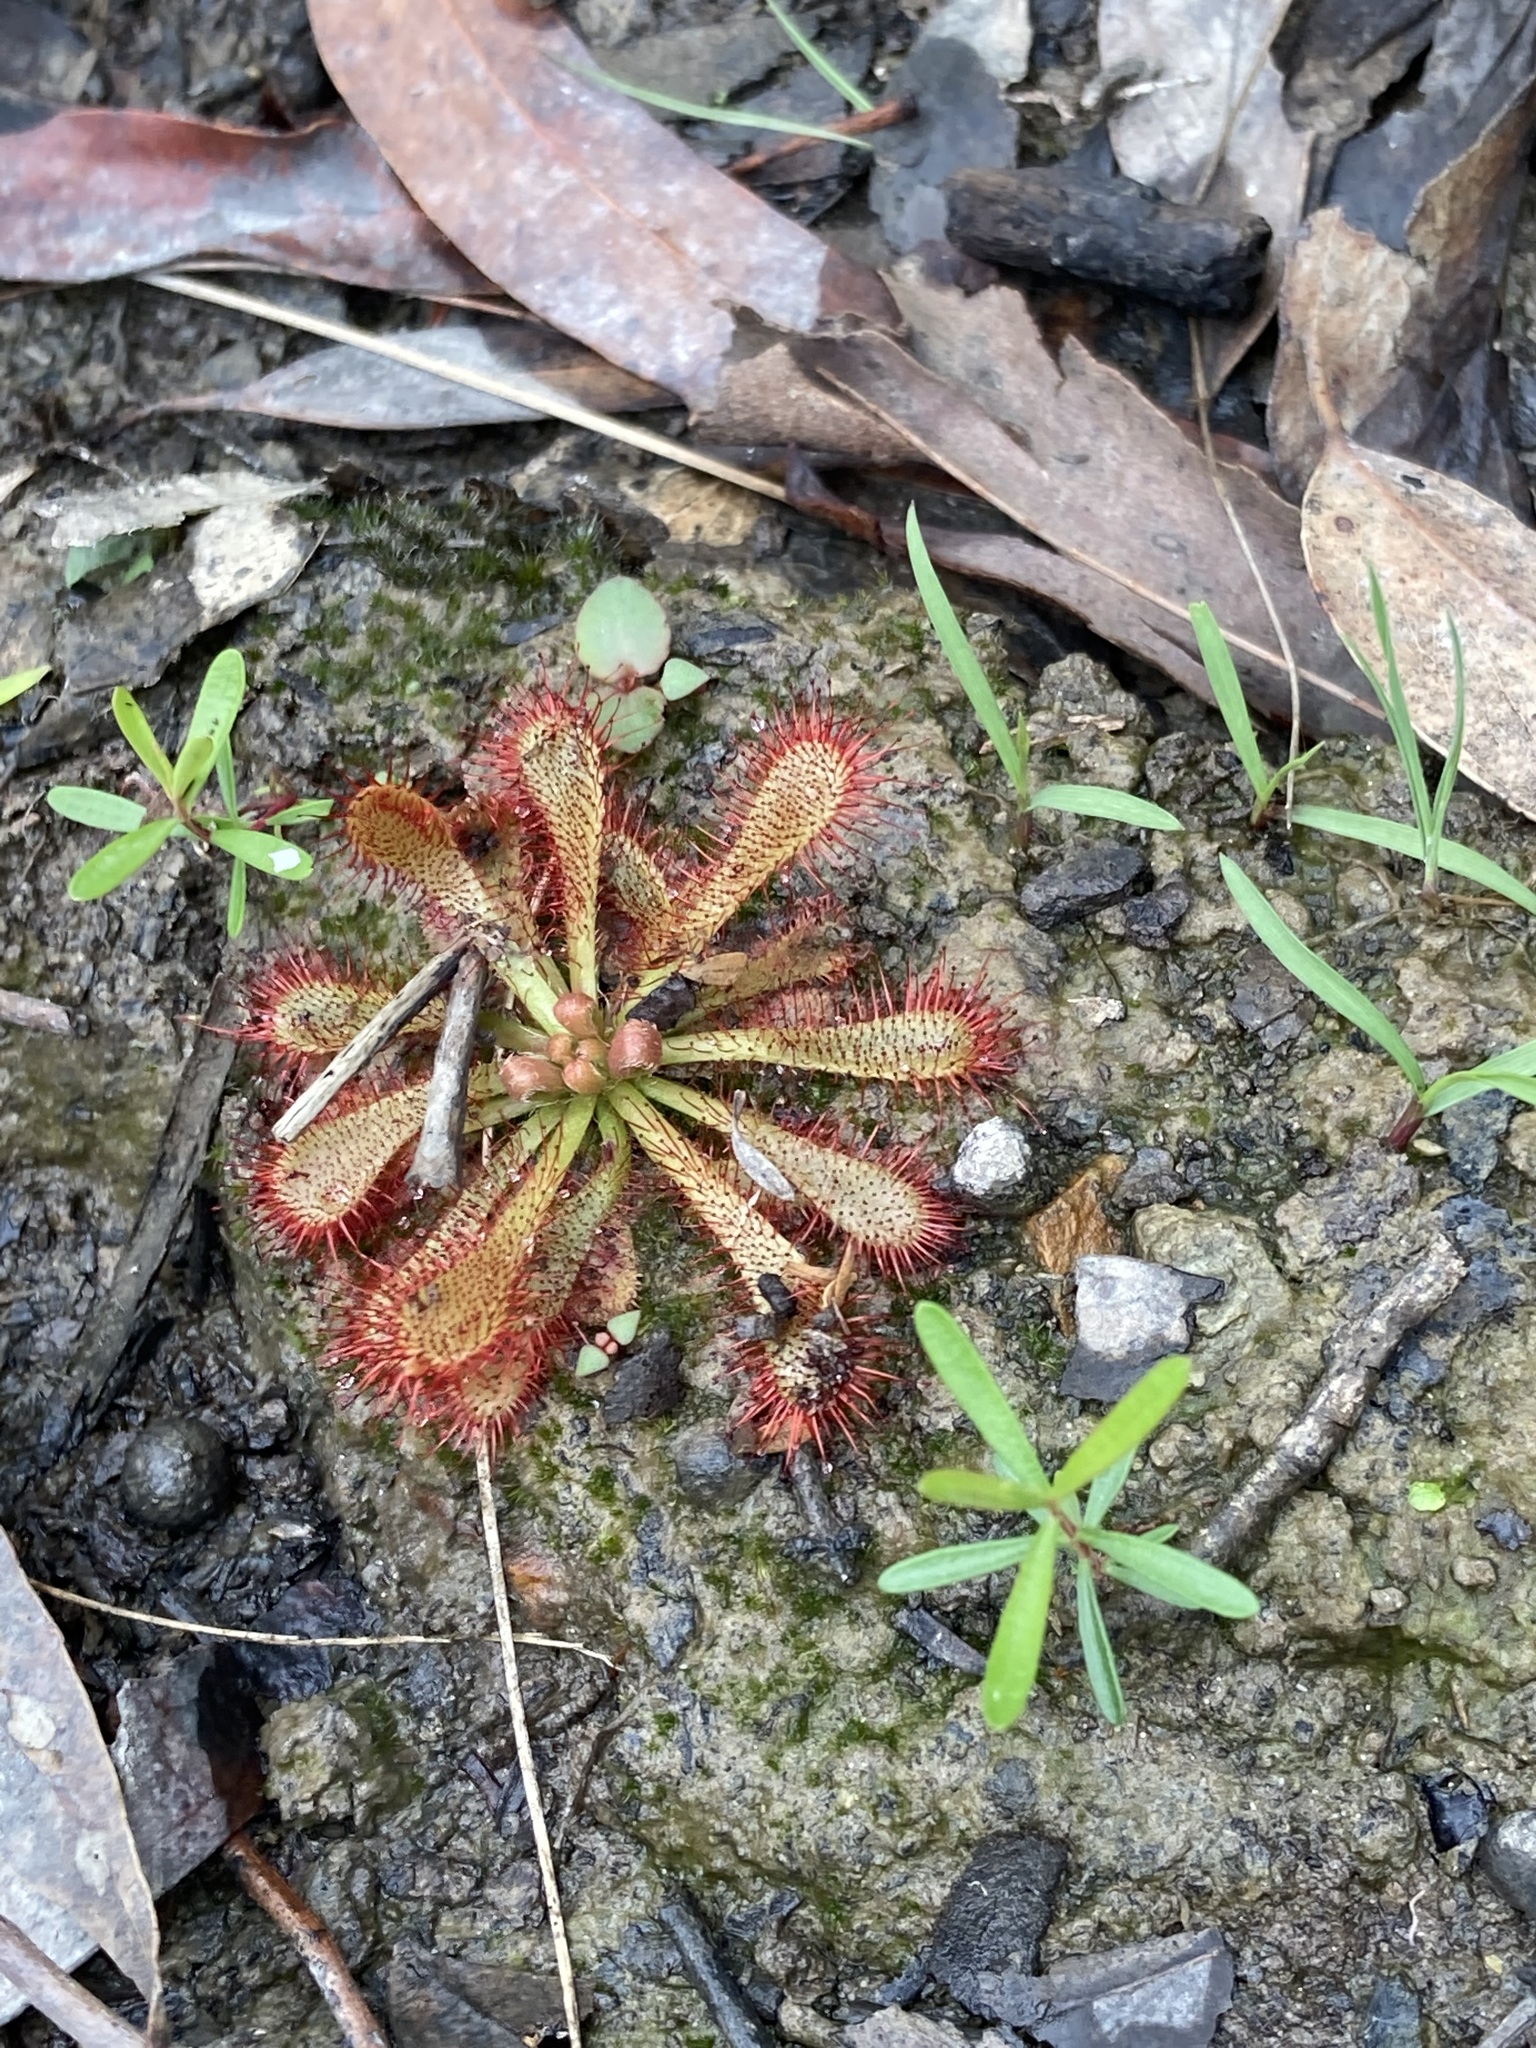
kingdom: Plantae
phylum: Tracheophyta
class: Magnoliopsida
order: Caryophyllales
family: Droseraceae
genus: Drosera
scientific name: Drosera spatulata
